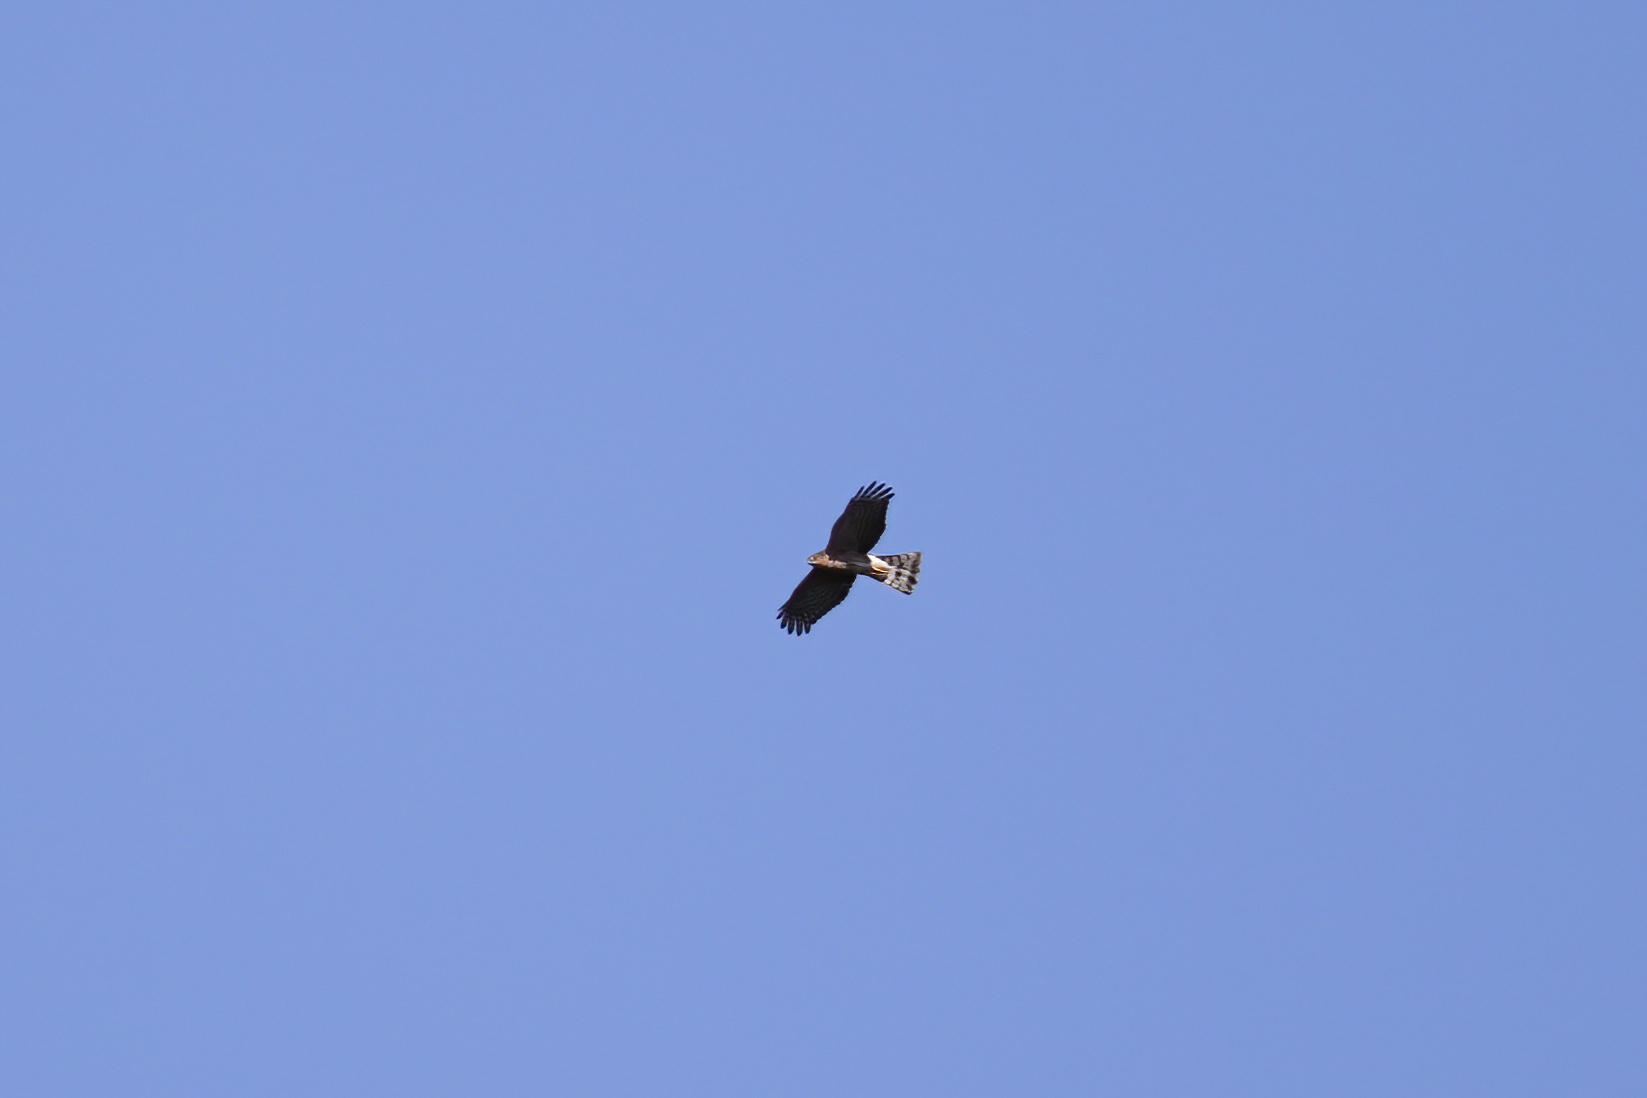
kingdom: Animalia
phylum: Chordata
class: Aves
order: Accipitriformes
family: Accipitridae
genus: Accipiter
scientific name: Accipiter striatus
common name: Sharp-shinned hawk
